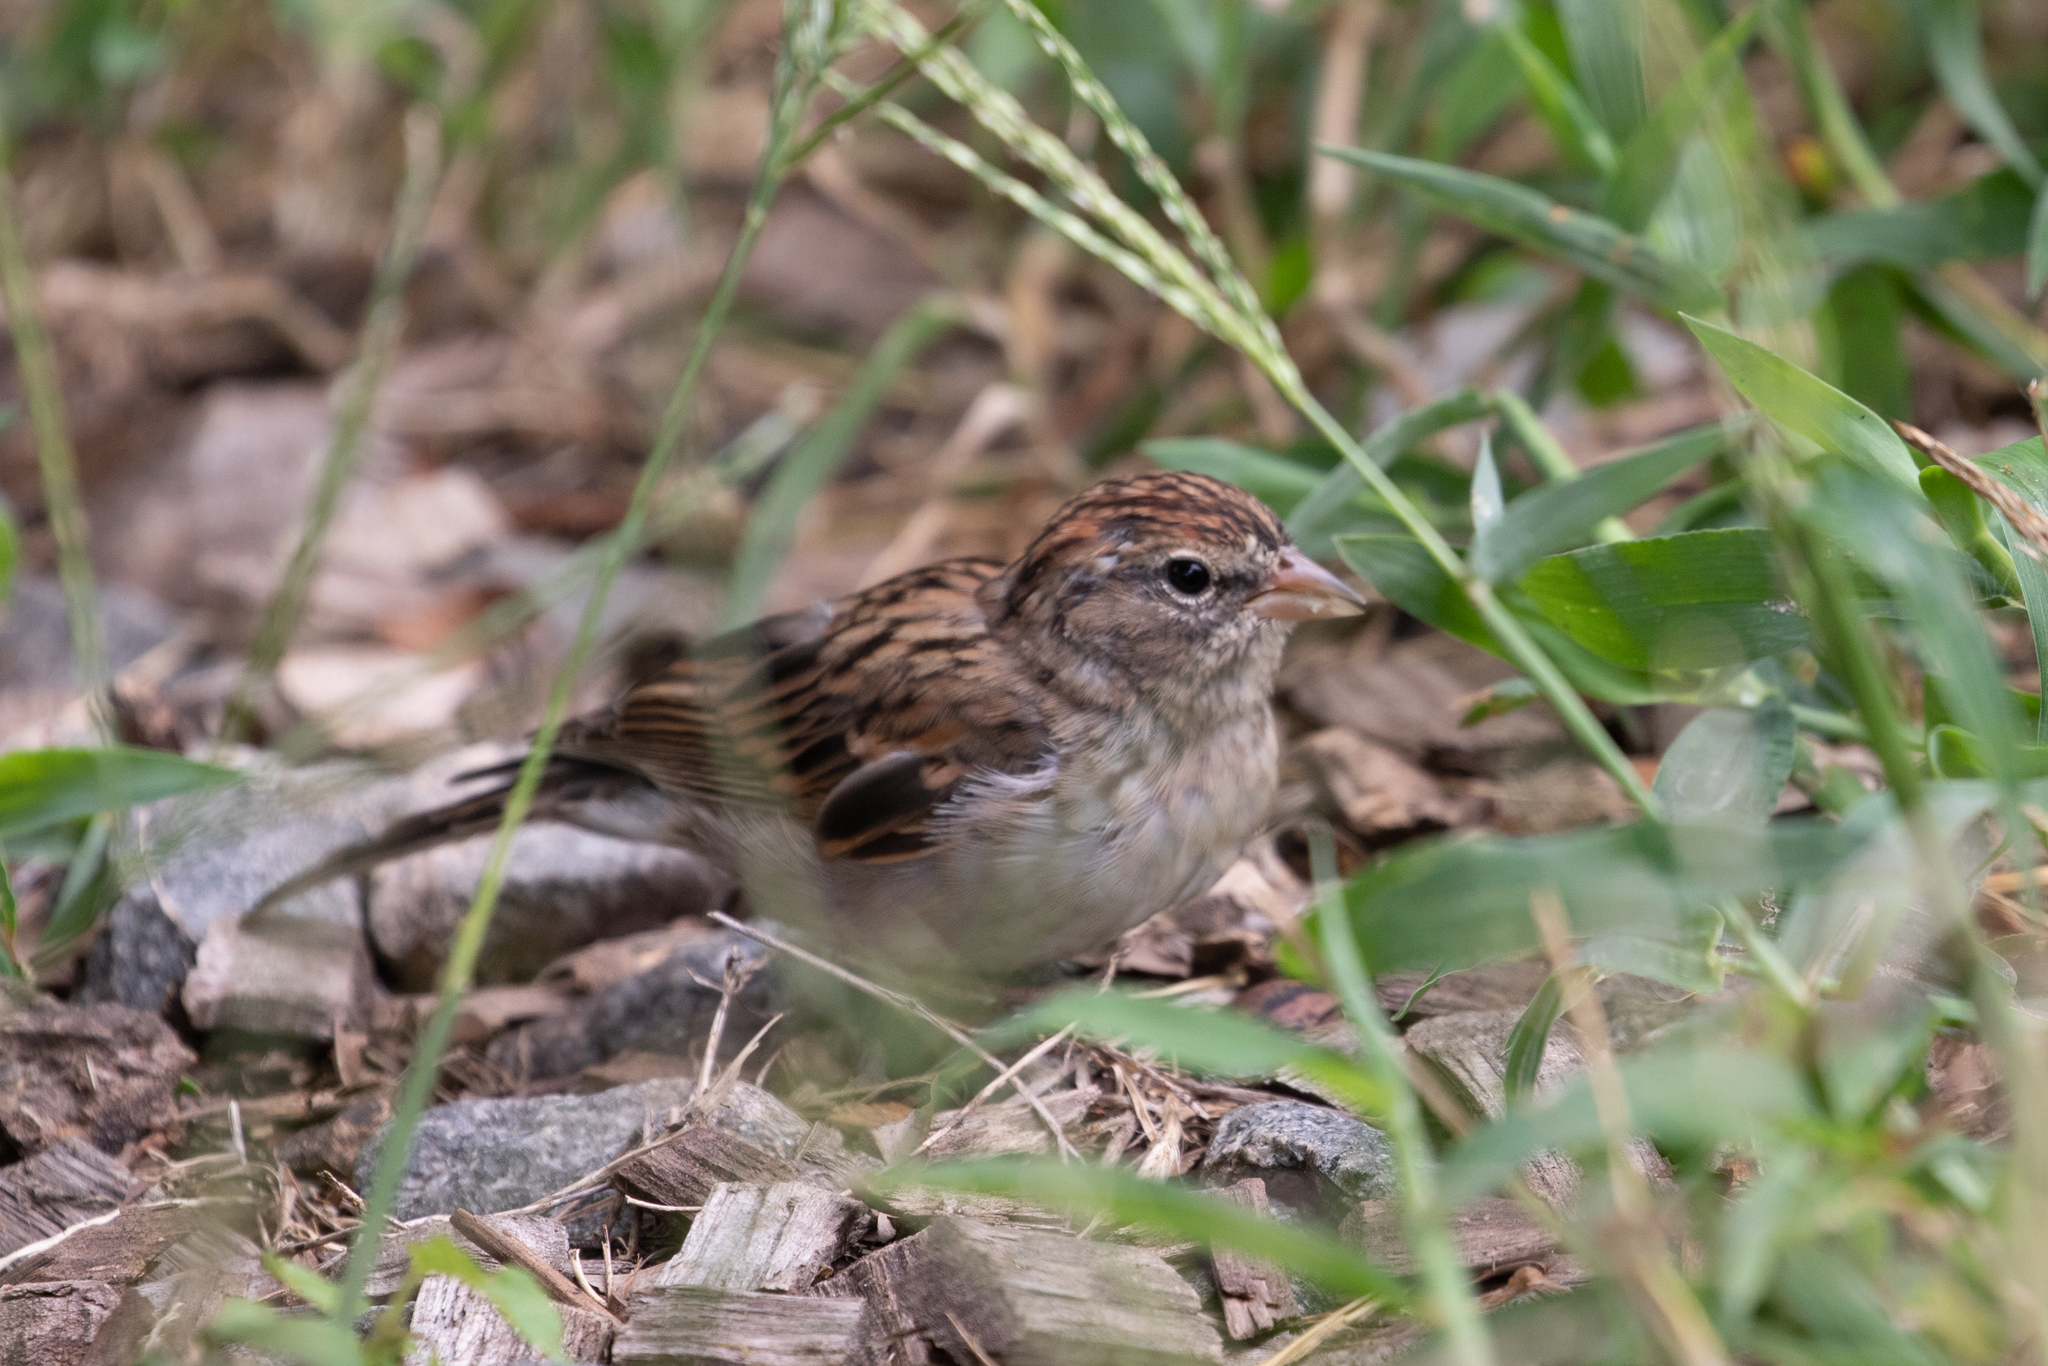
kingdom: Animalia
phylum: Chordata
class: Aves
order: Passeriformes
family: Passerellidae
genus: Spizella
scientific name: Spizella passerina
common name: Chipping sparrow
